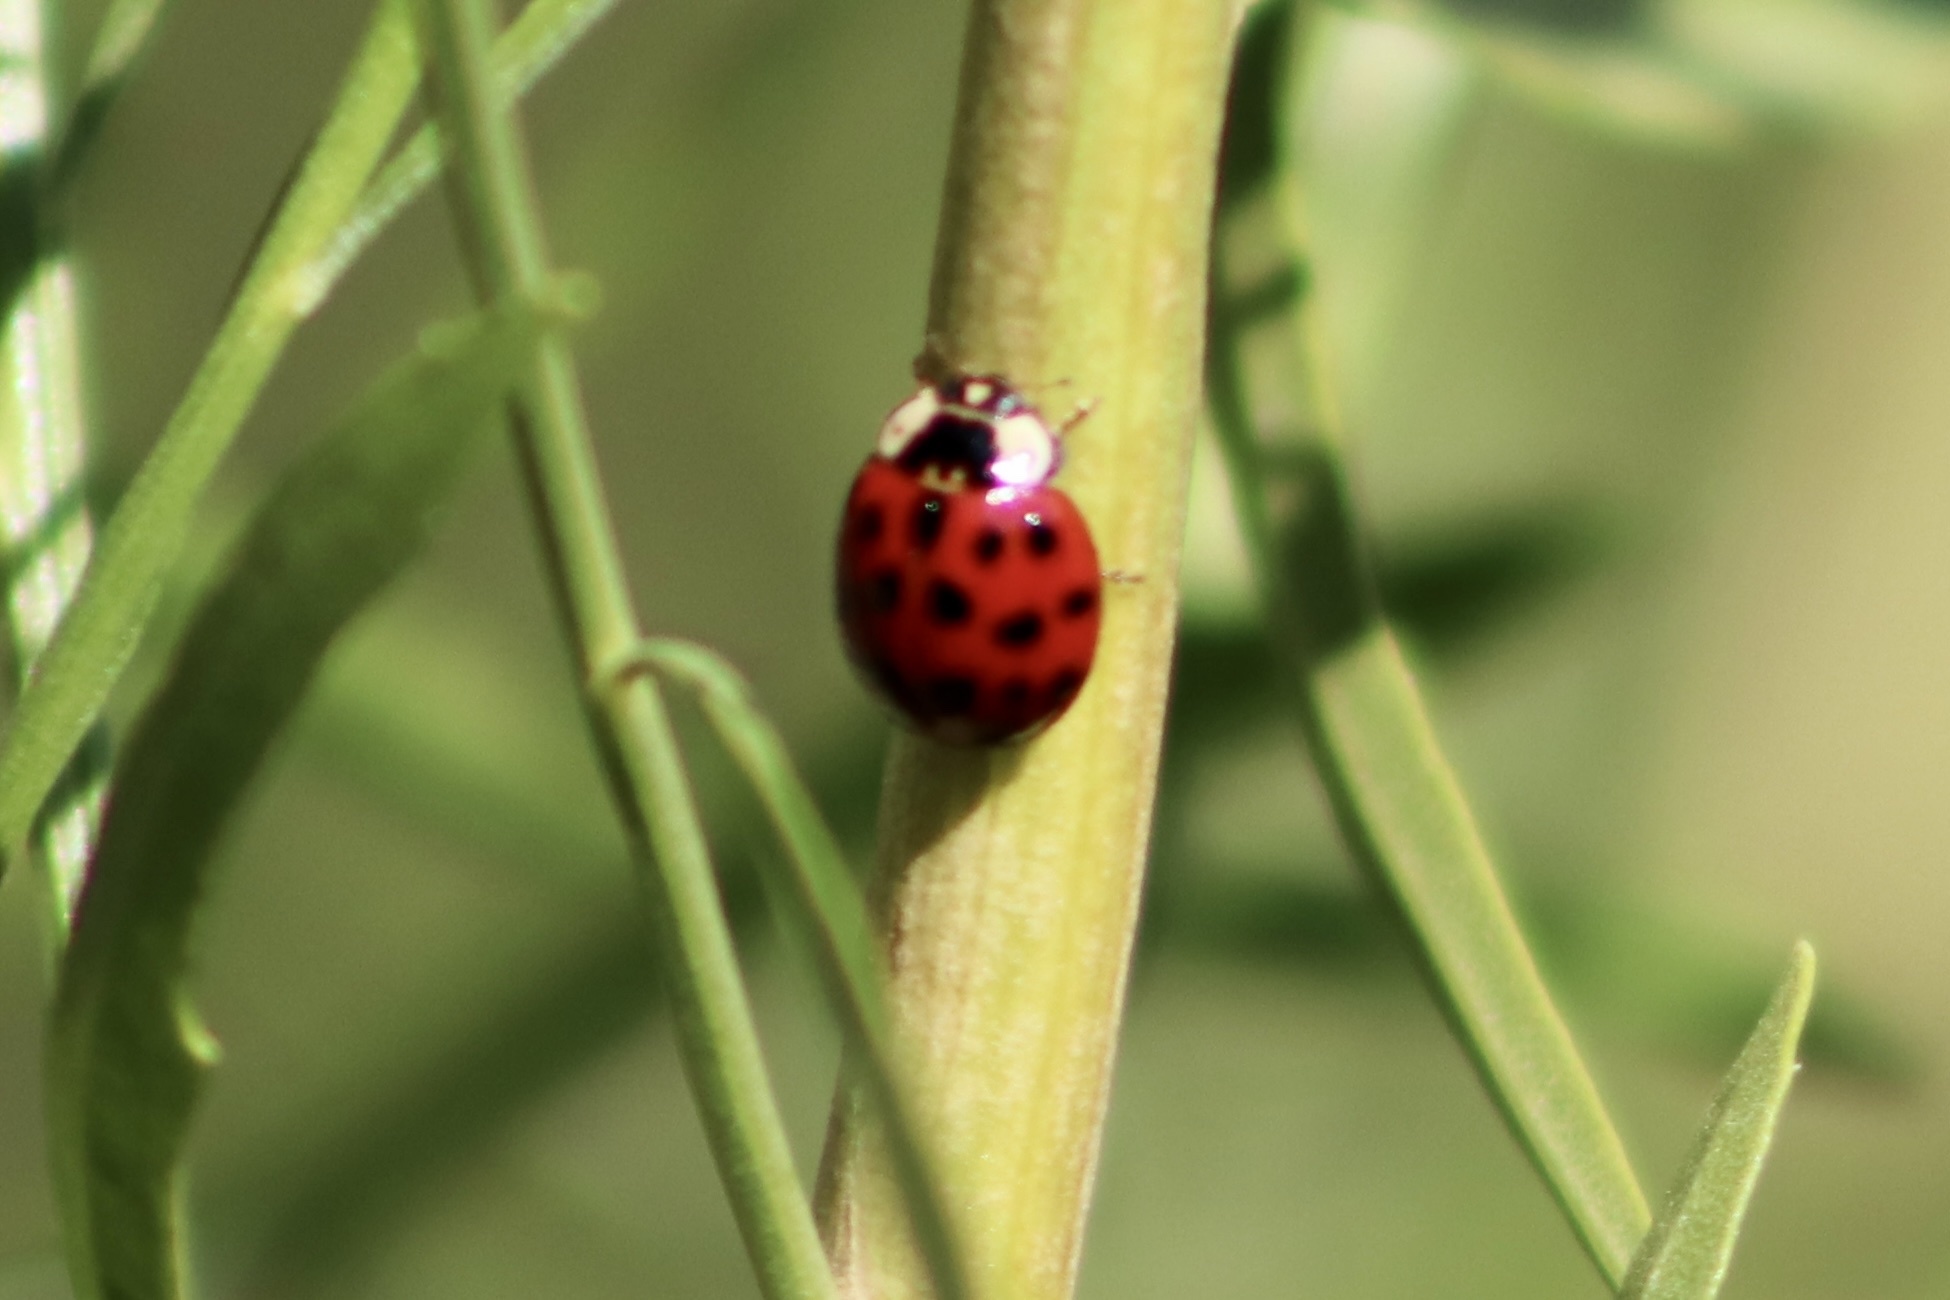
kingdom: Animalia
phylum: Arthropoda
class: Insecta
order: Coleoptera
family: Coccinellidae
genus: Harmonia
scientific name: Harmonia axyridis
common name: Harlequin ladybird
